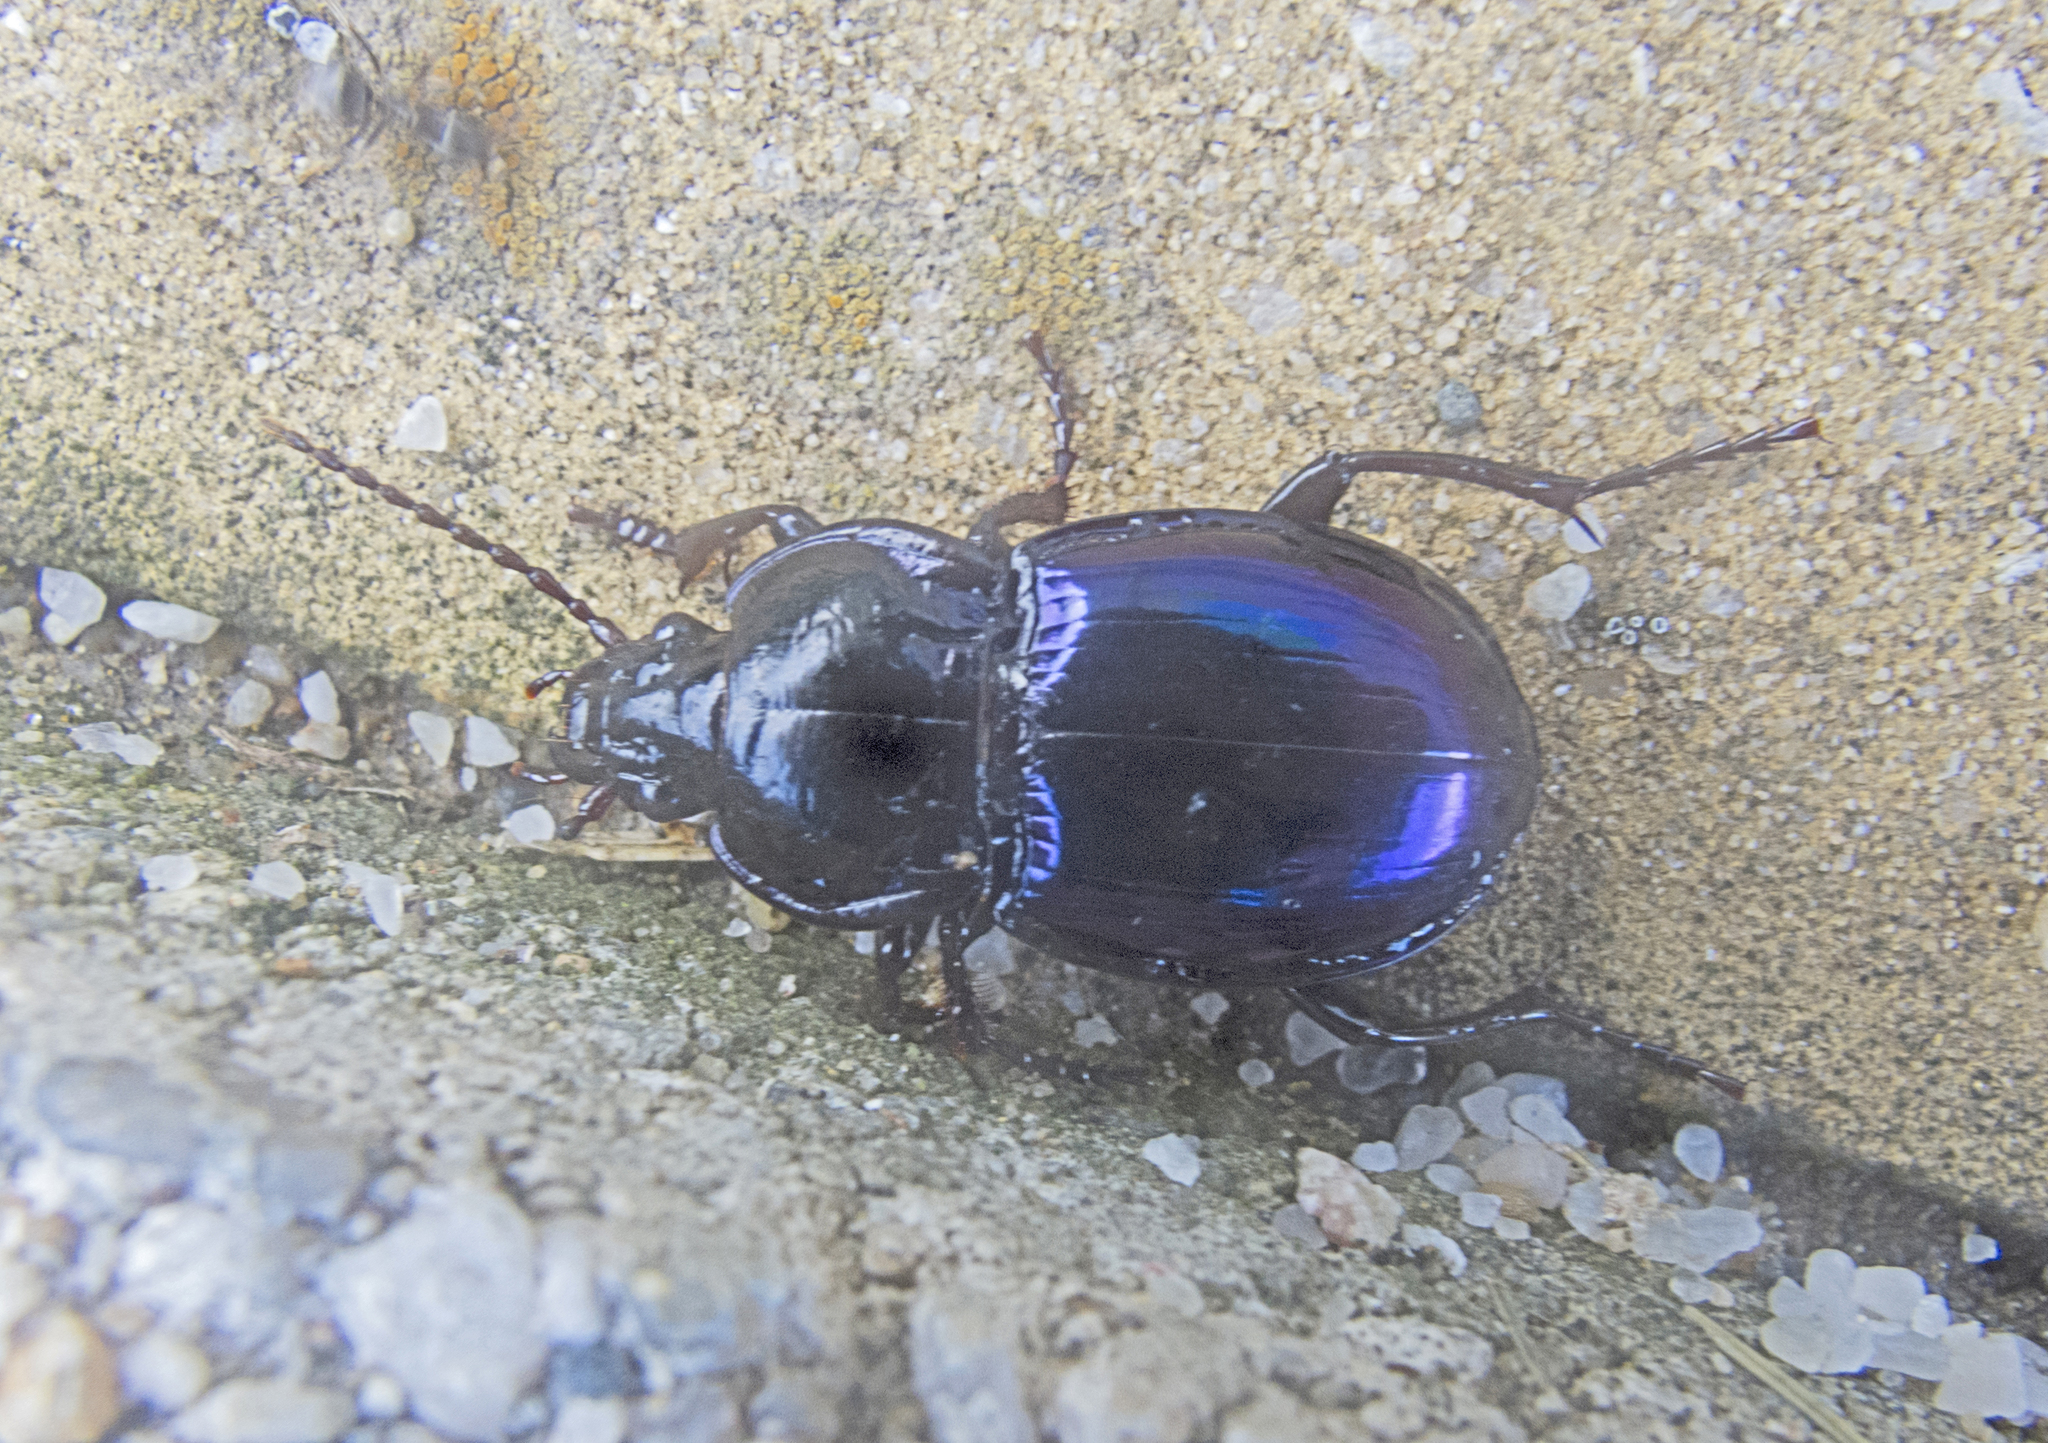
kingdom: Animalia
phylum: Arthropoda
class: Insecta
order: Coleoptera
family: Carabidae
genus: Myas
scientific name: Myas chalybaeus
